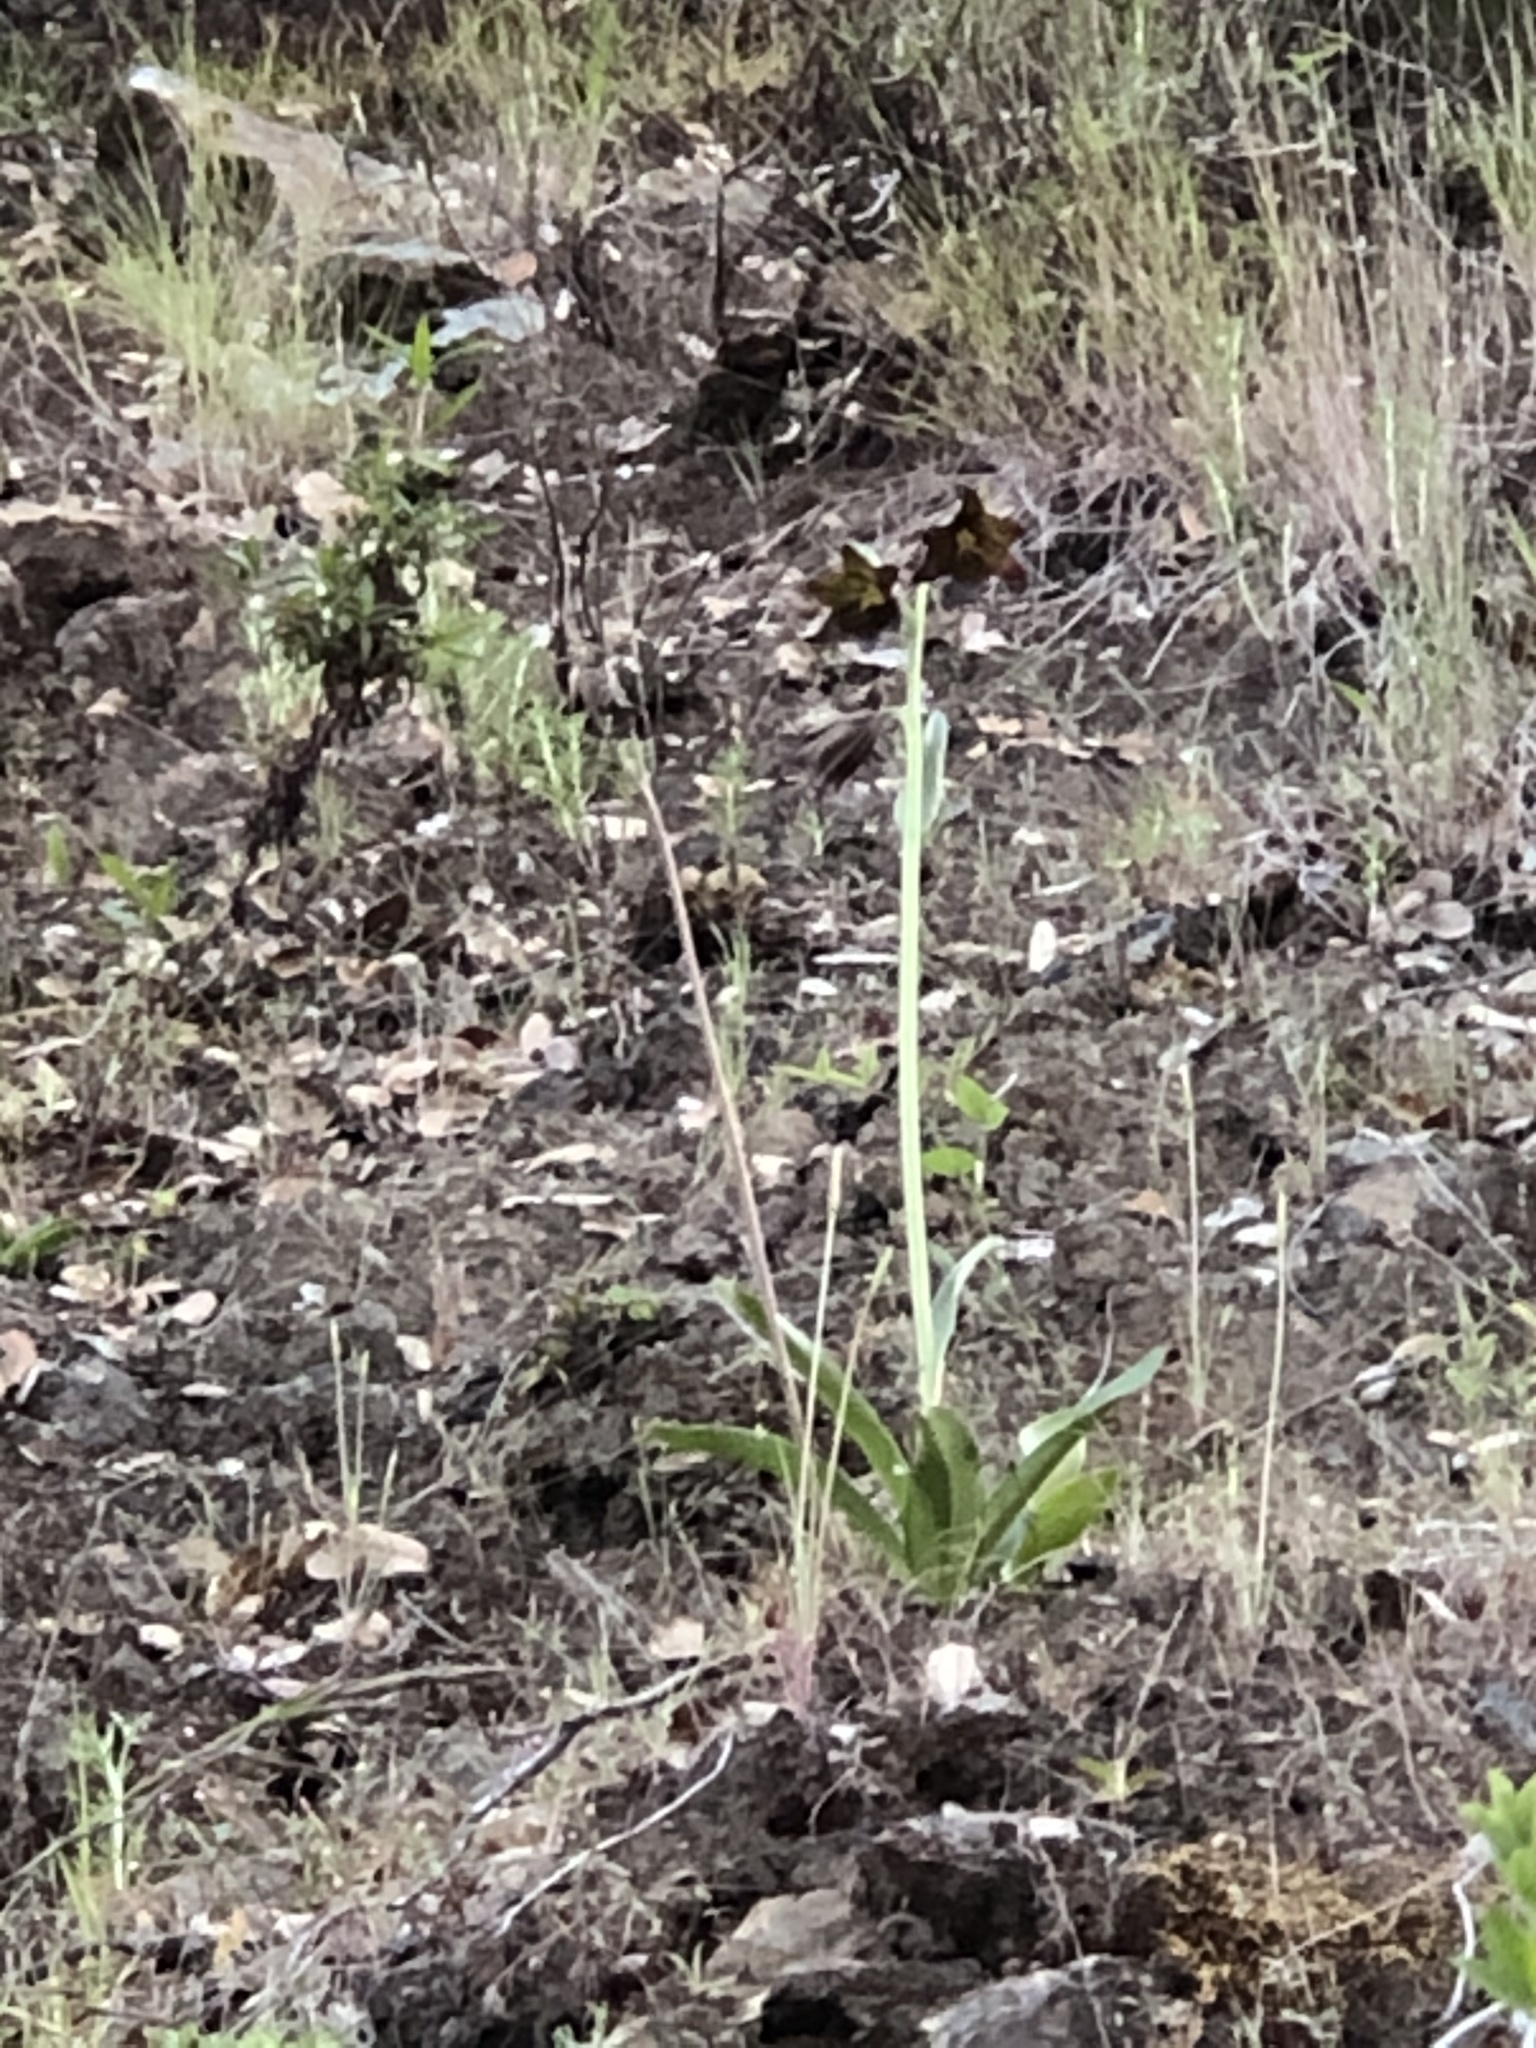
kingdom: Plantae
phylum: Tracheophyta
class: Liliopsida
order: Liliales
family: Liliaceae
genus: Fritillaria
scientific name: Fritillaria biflora
